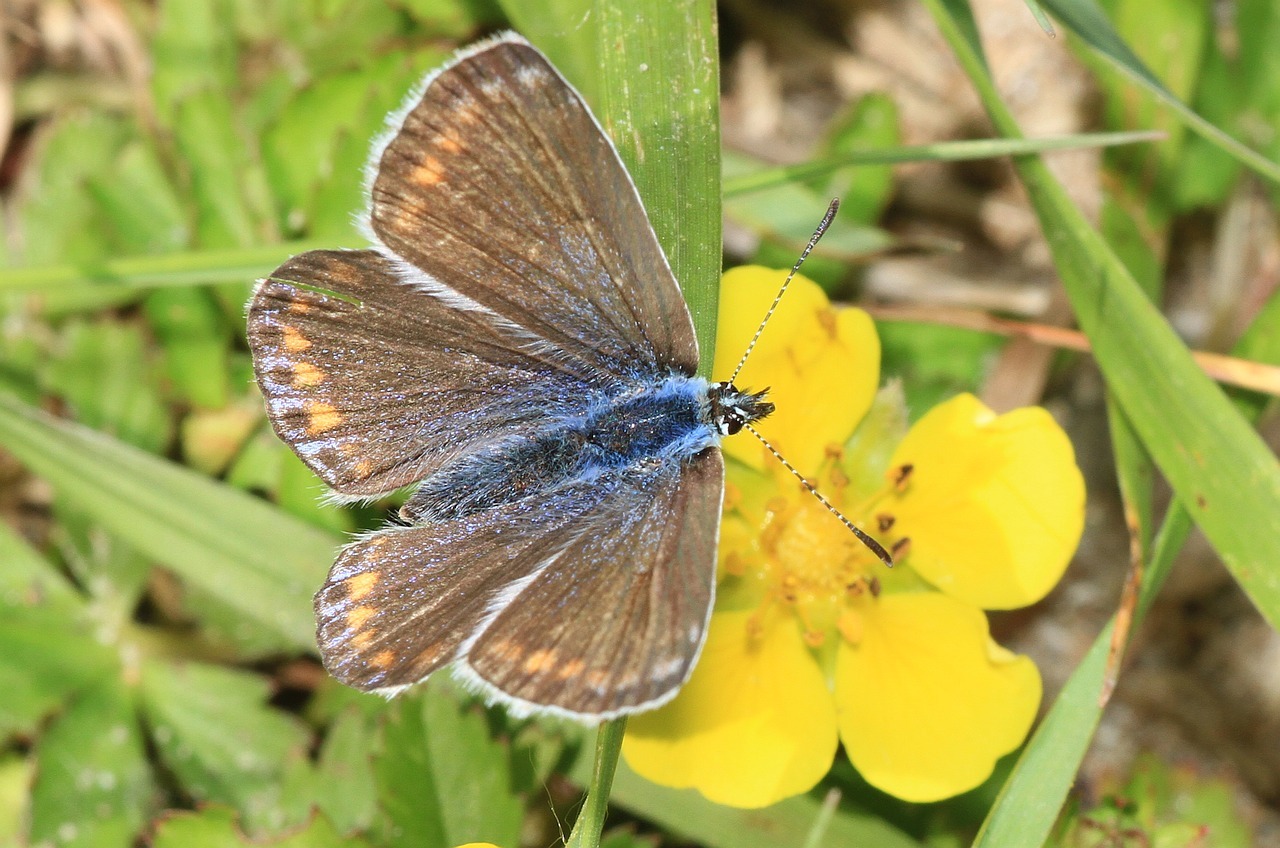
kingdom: Animalia
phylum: Arthropoda
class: Insecta
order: Lepidoptera
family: Lycaenidae
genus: Polyommatus
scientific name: Polyommatus icarus
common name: Common blue
